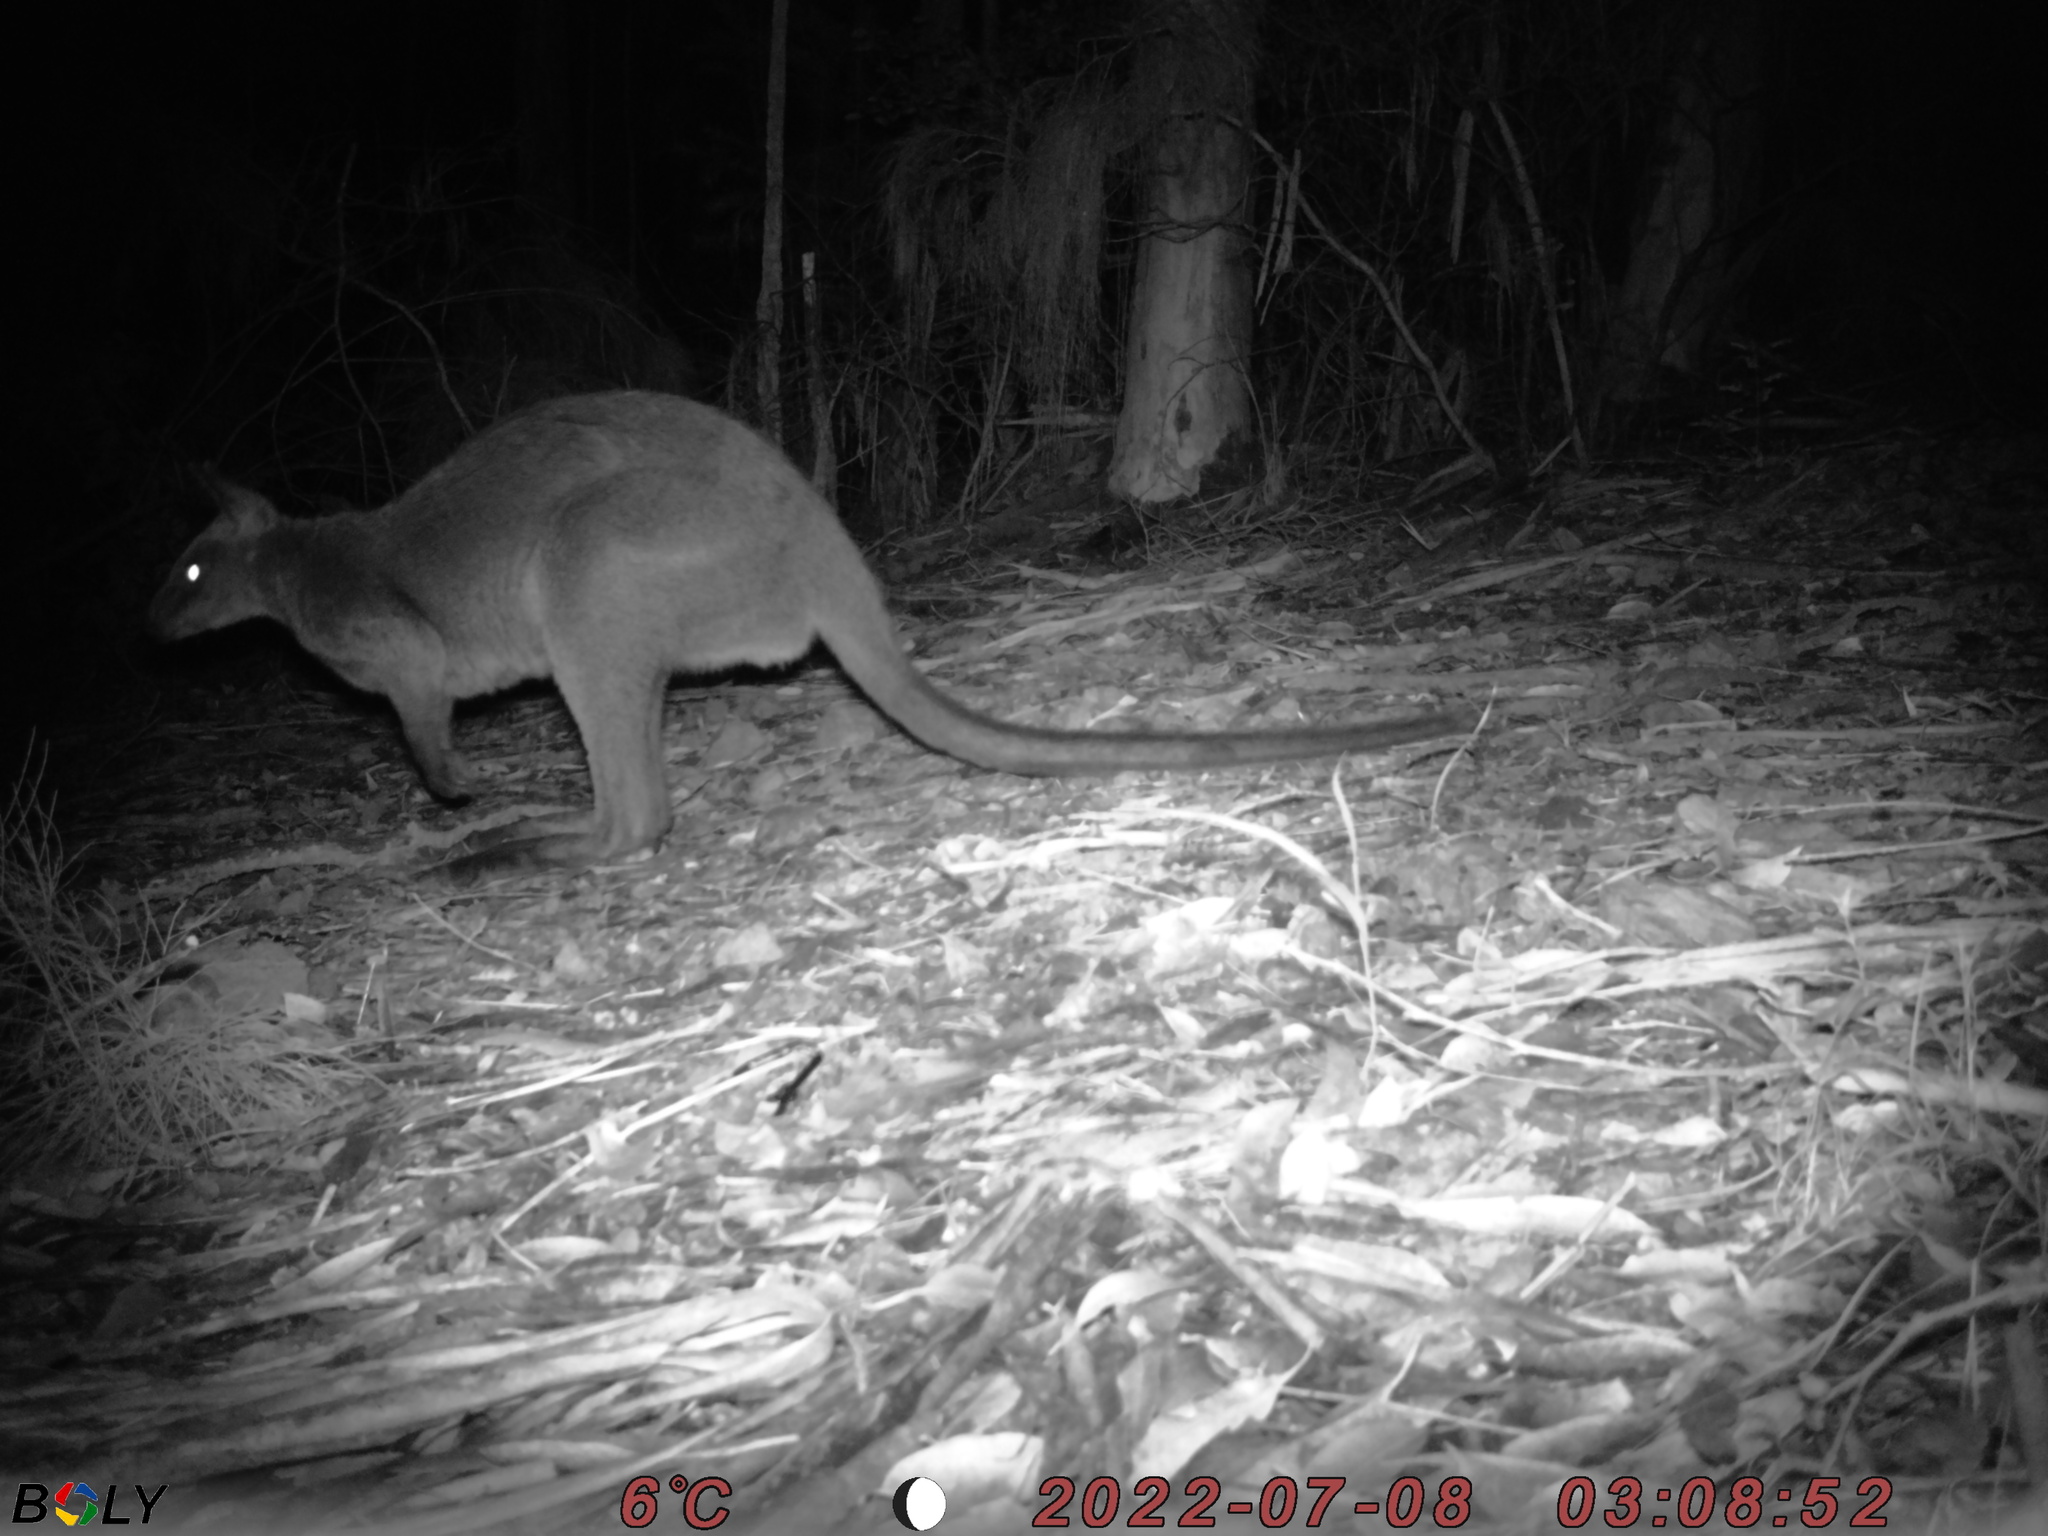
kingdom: Animalia
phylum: Chordata
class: Mammalia
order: Diprotodontia
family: Macropodidae
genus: Wallabia
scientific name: Wallabia bicolor
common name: Swamp wallaby
